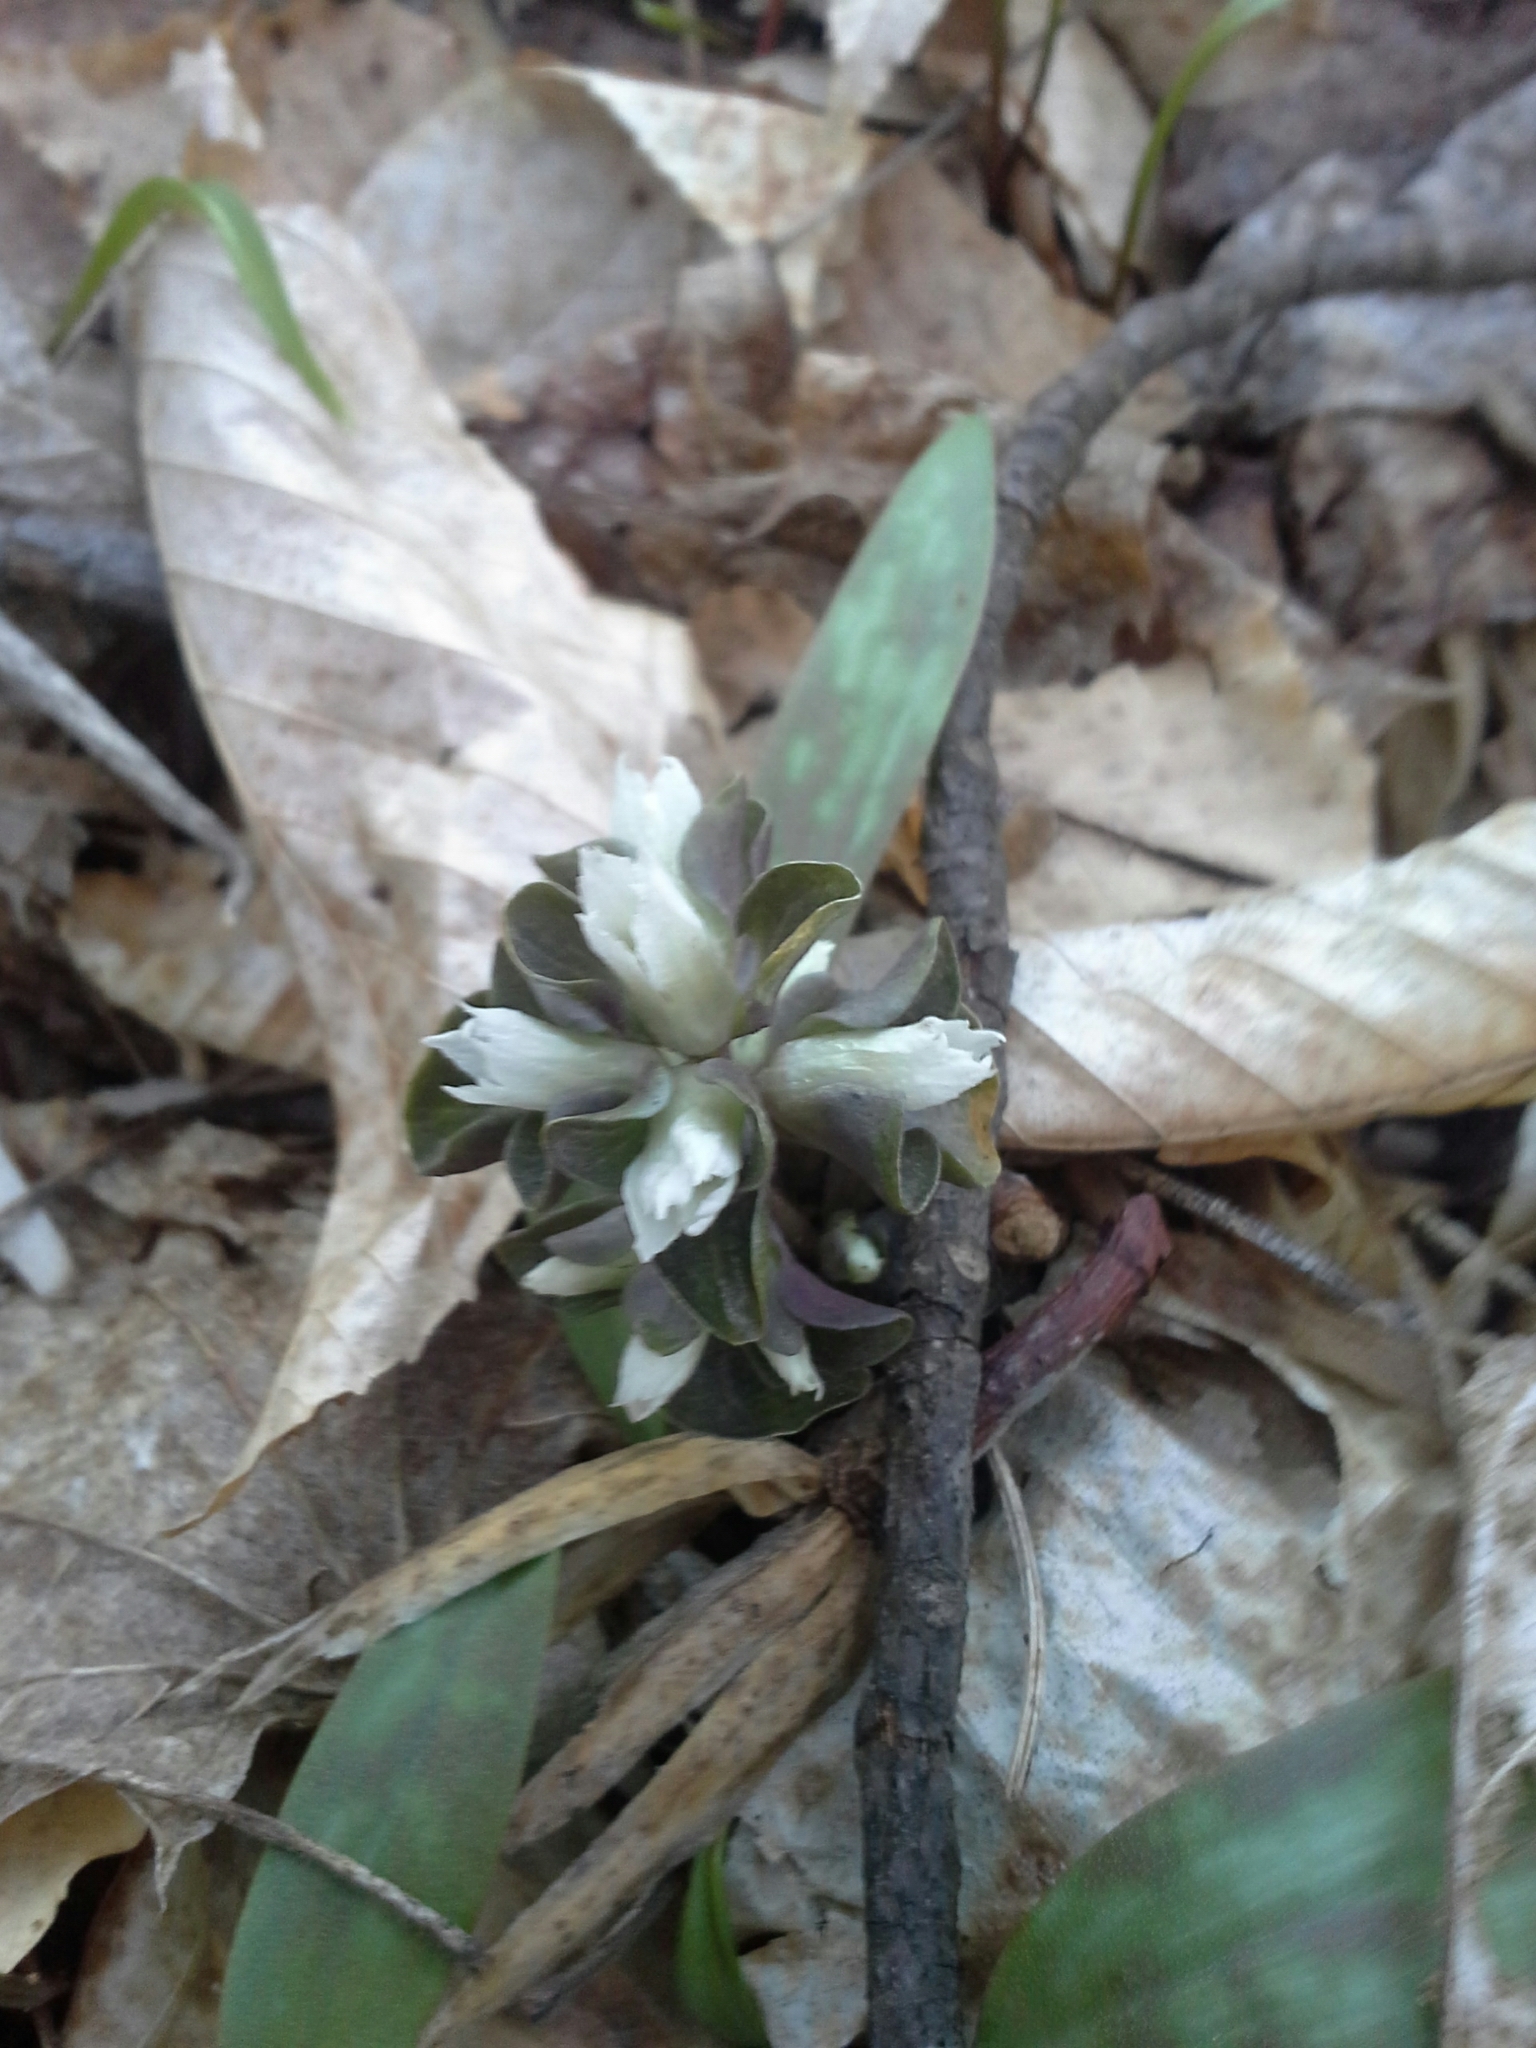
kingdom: Plantae
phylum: Tracheophyta
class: Magnoliopsida
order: Gentianales
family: Gentianaceae
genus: Obolaria
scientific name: Obolaria virginica
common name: Pennywort
